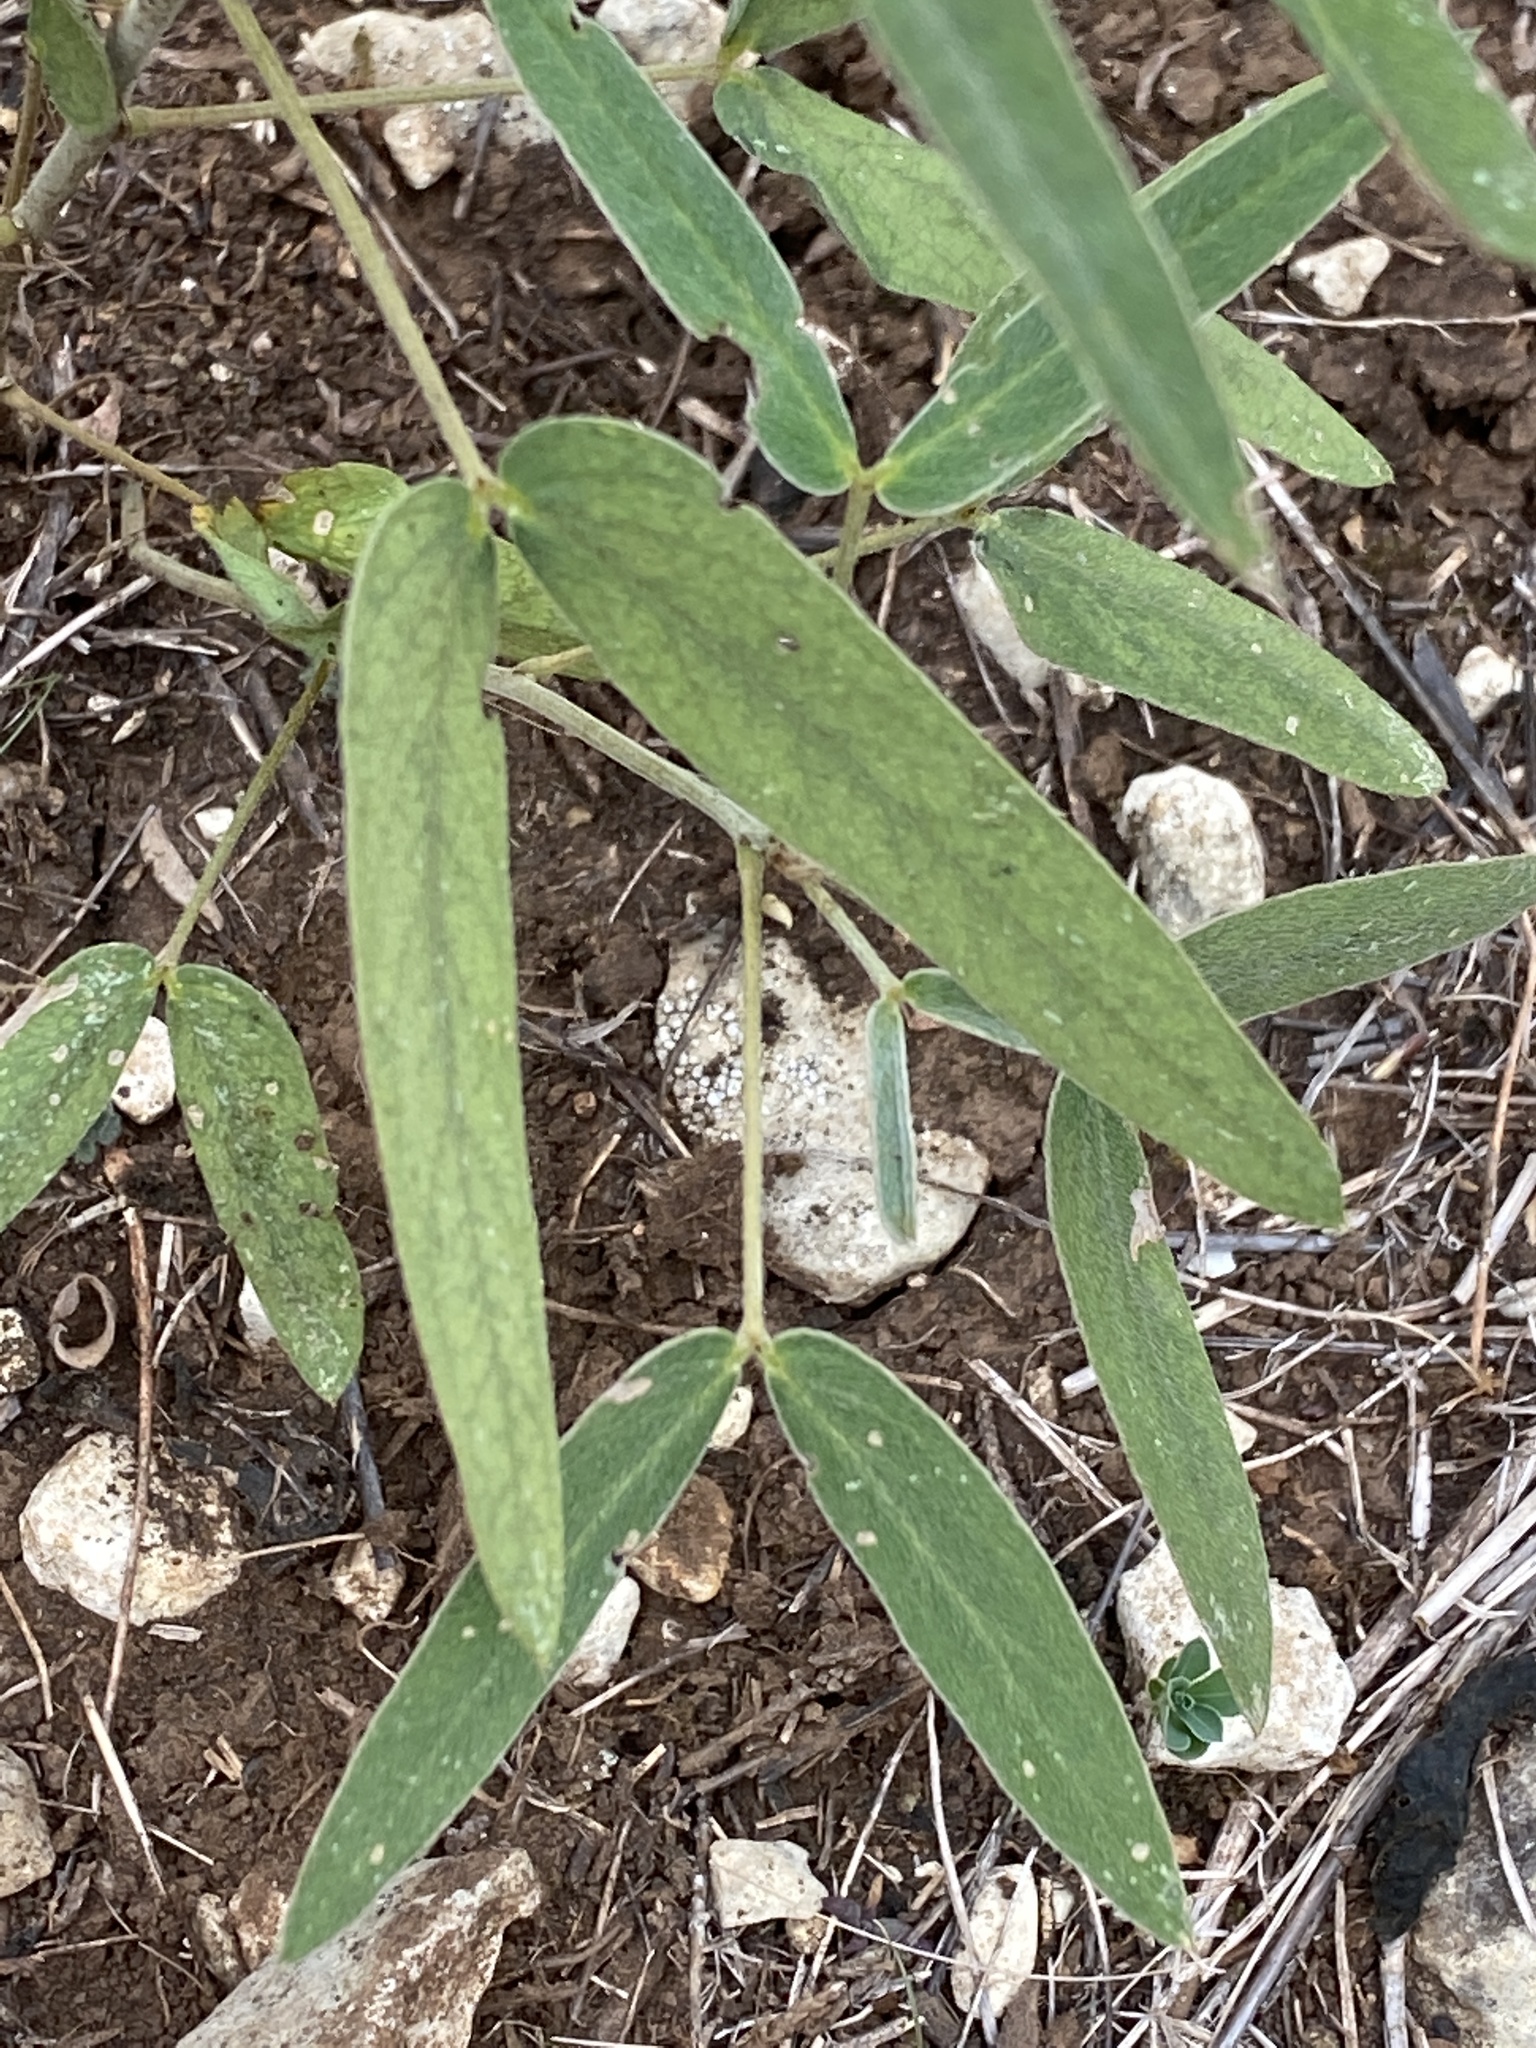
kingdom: Plantae
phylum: Tracheophyta
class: Magnoliopsida
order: Fabales
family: Fabaceae
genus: Senna
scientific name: Senna roemeriana
